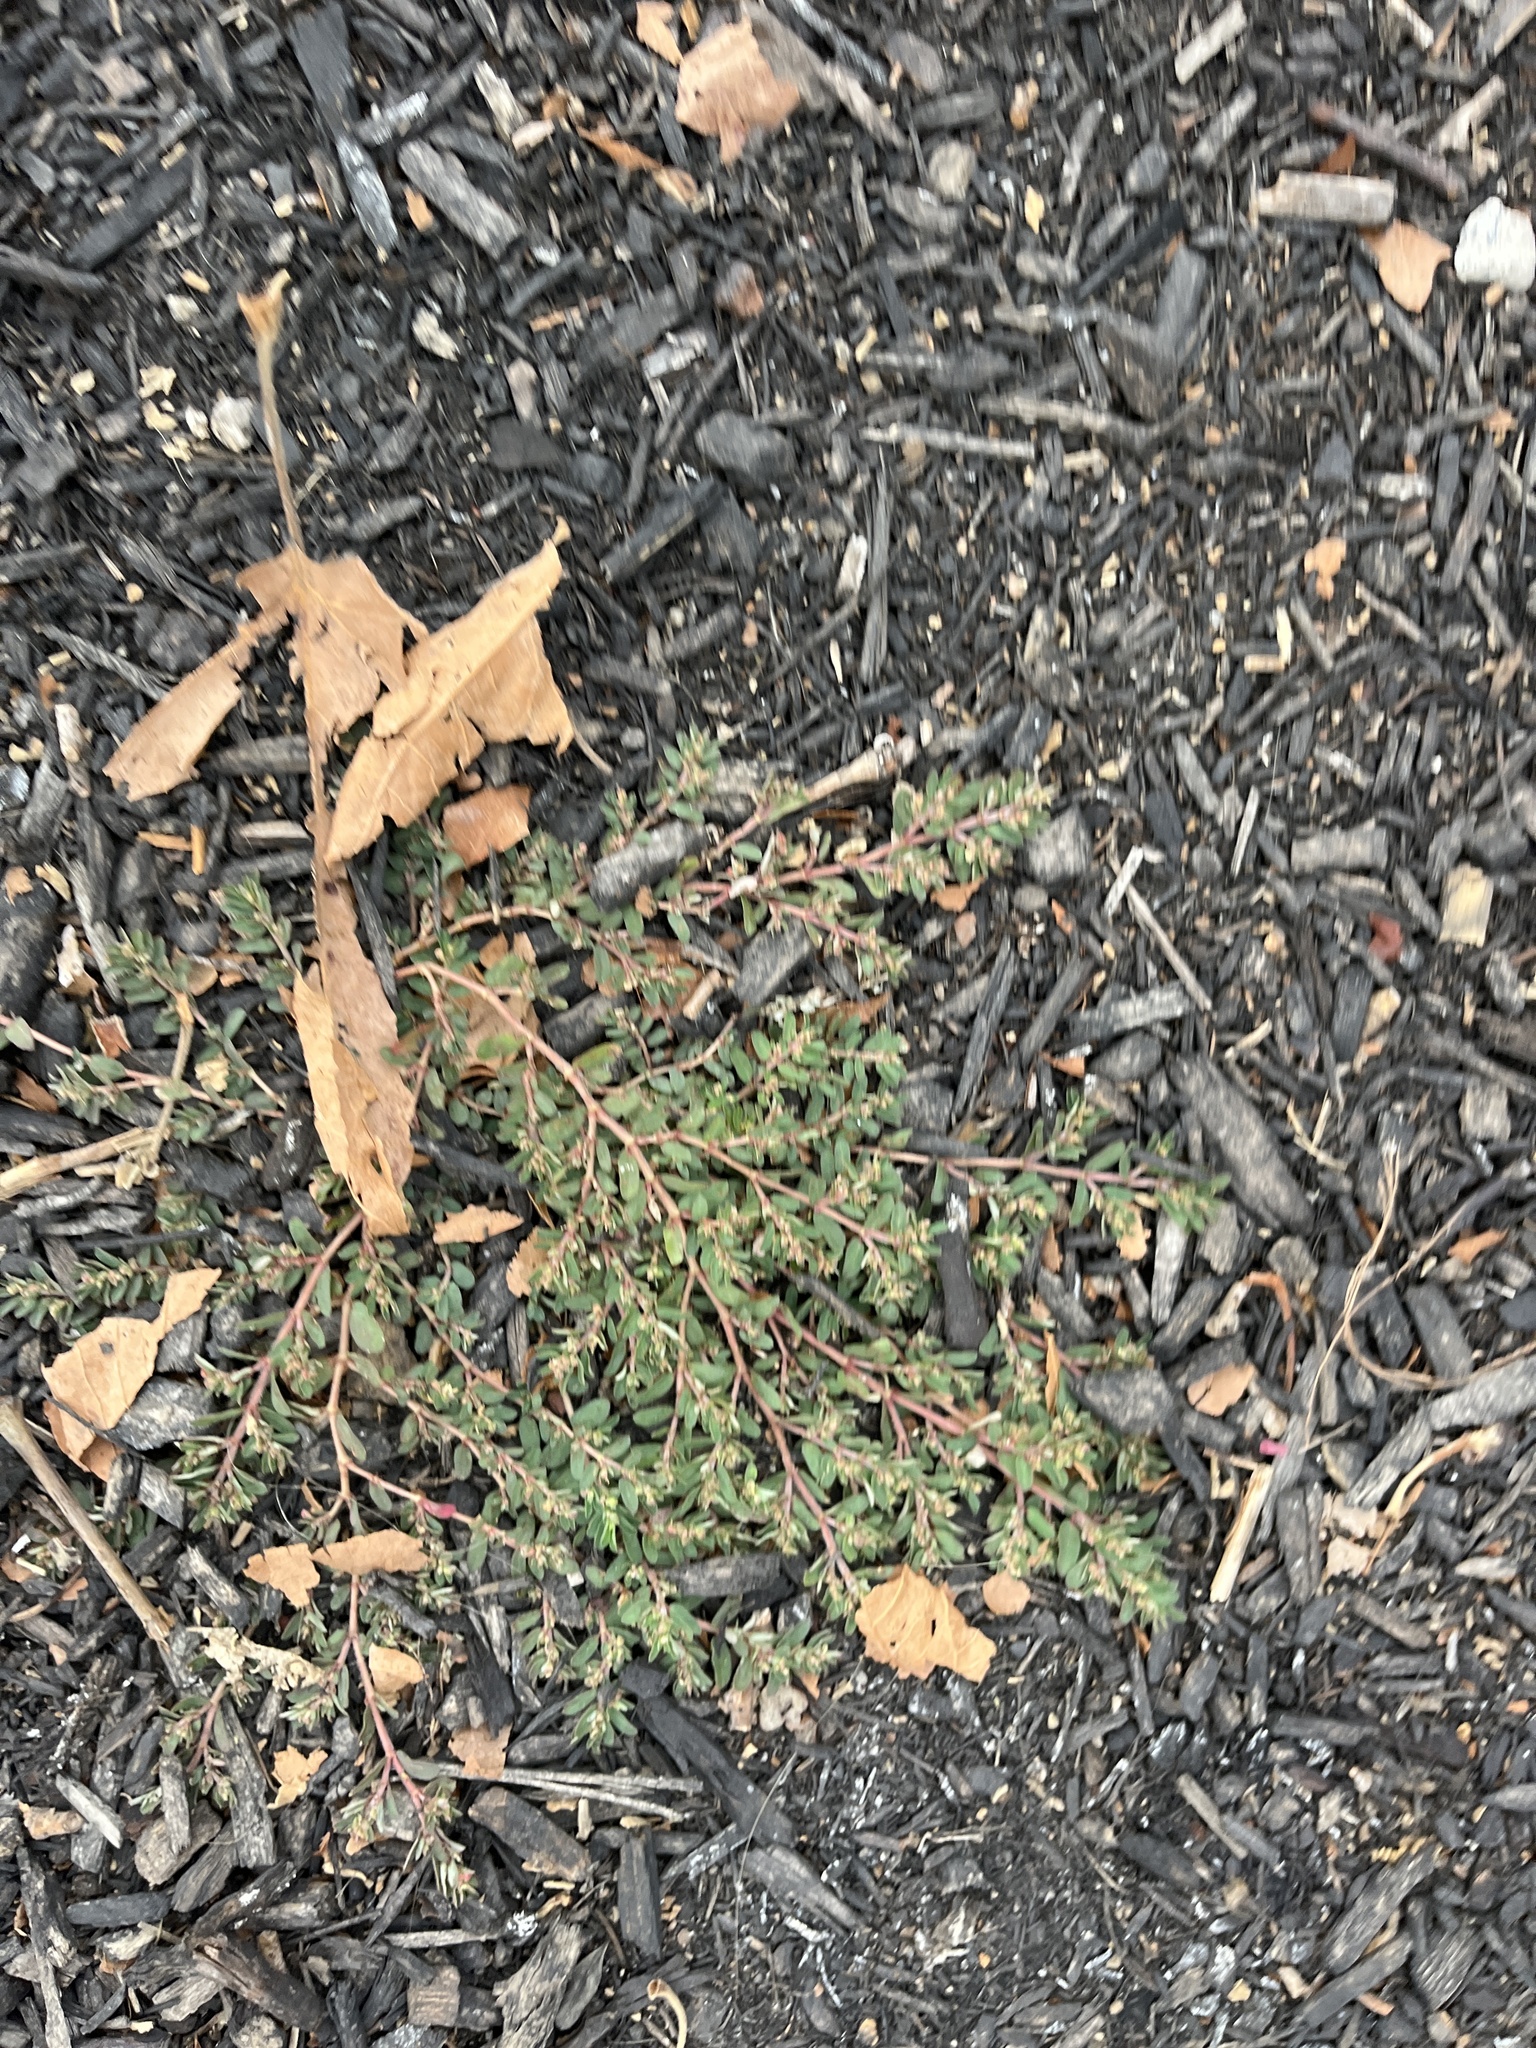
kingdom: Plantae
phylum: Tracheophyta
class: Magnoliopsida
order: Malpighiales
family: Euphorbiaceae
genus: Euphorbia
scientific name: Euphorbia maculata
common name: Spotted spurge
